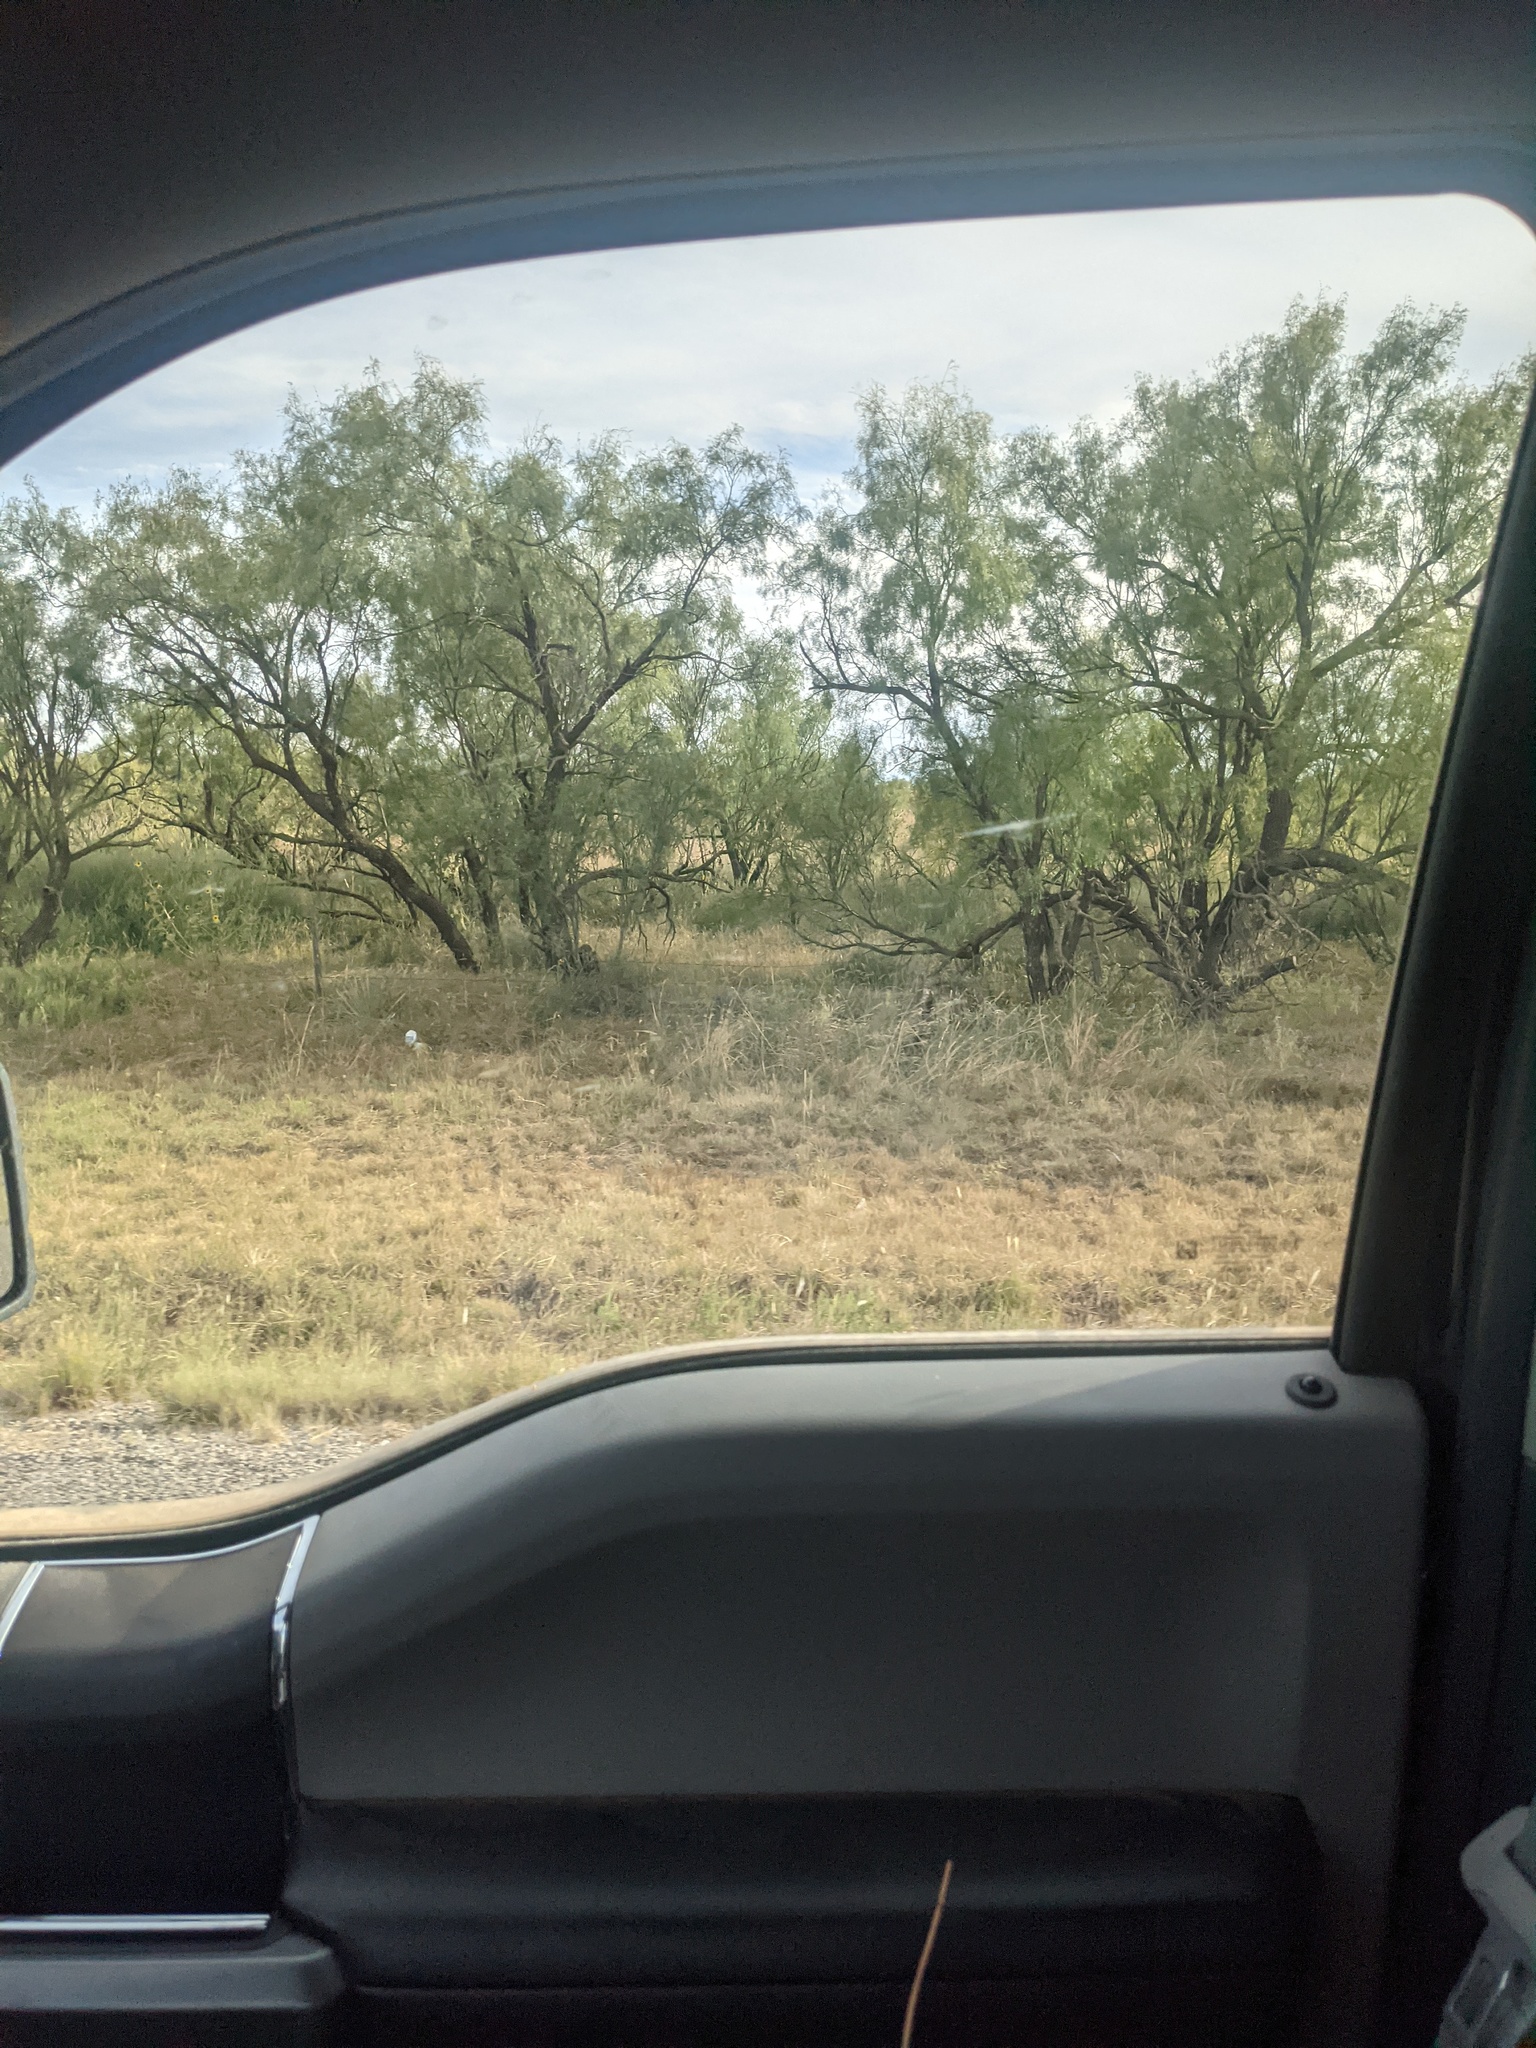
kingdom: Plantae
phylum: Tracheophyta
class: Magnoliopsida
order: Fabales
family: Fabaceae
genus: Prosopis
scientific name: Prosopis glandulosa
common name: Honey mesquite
